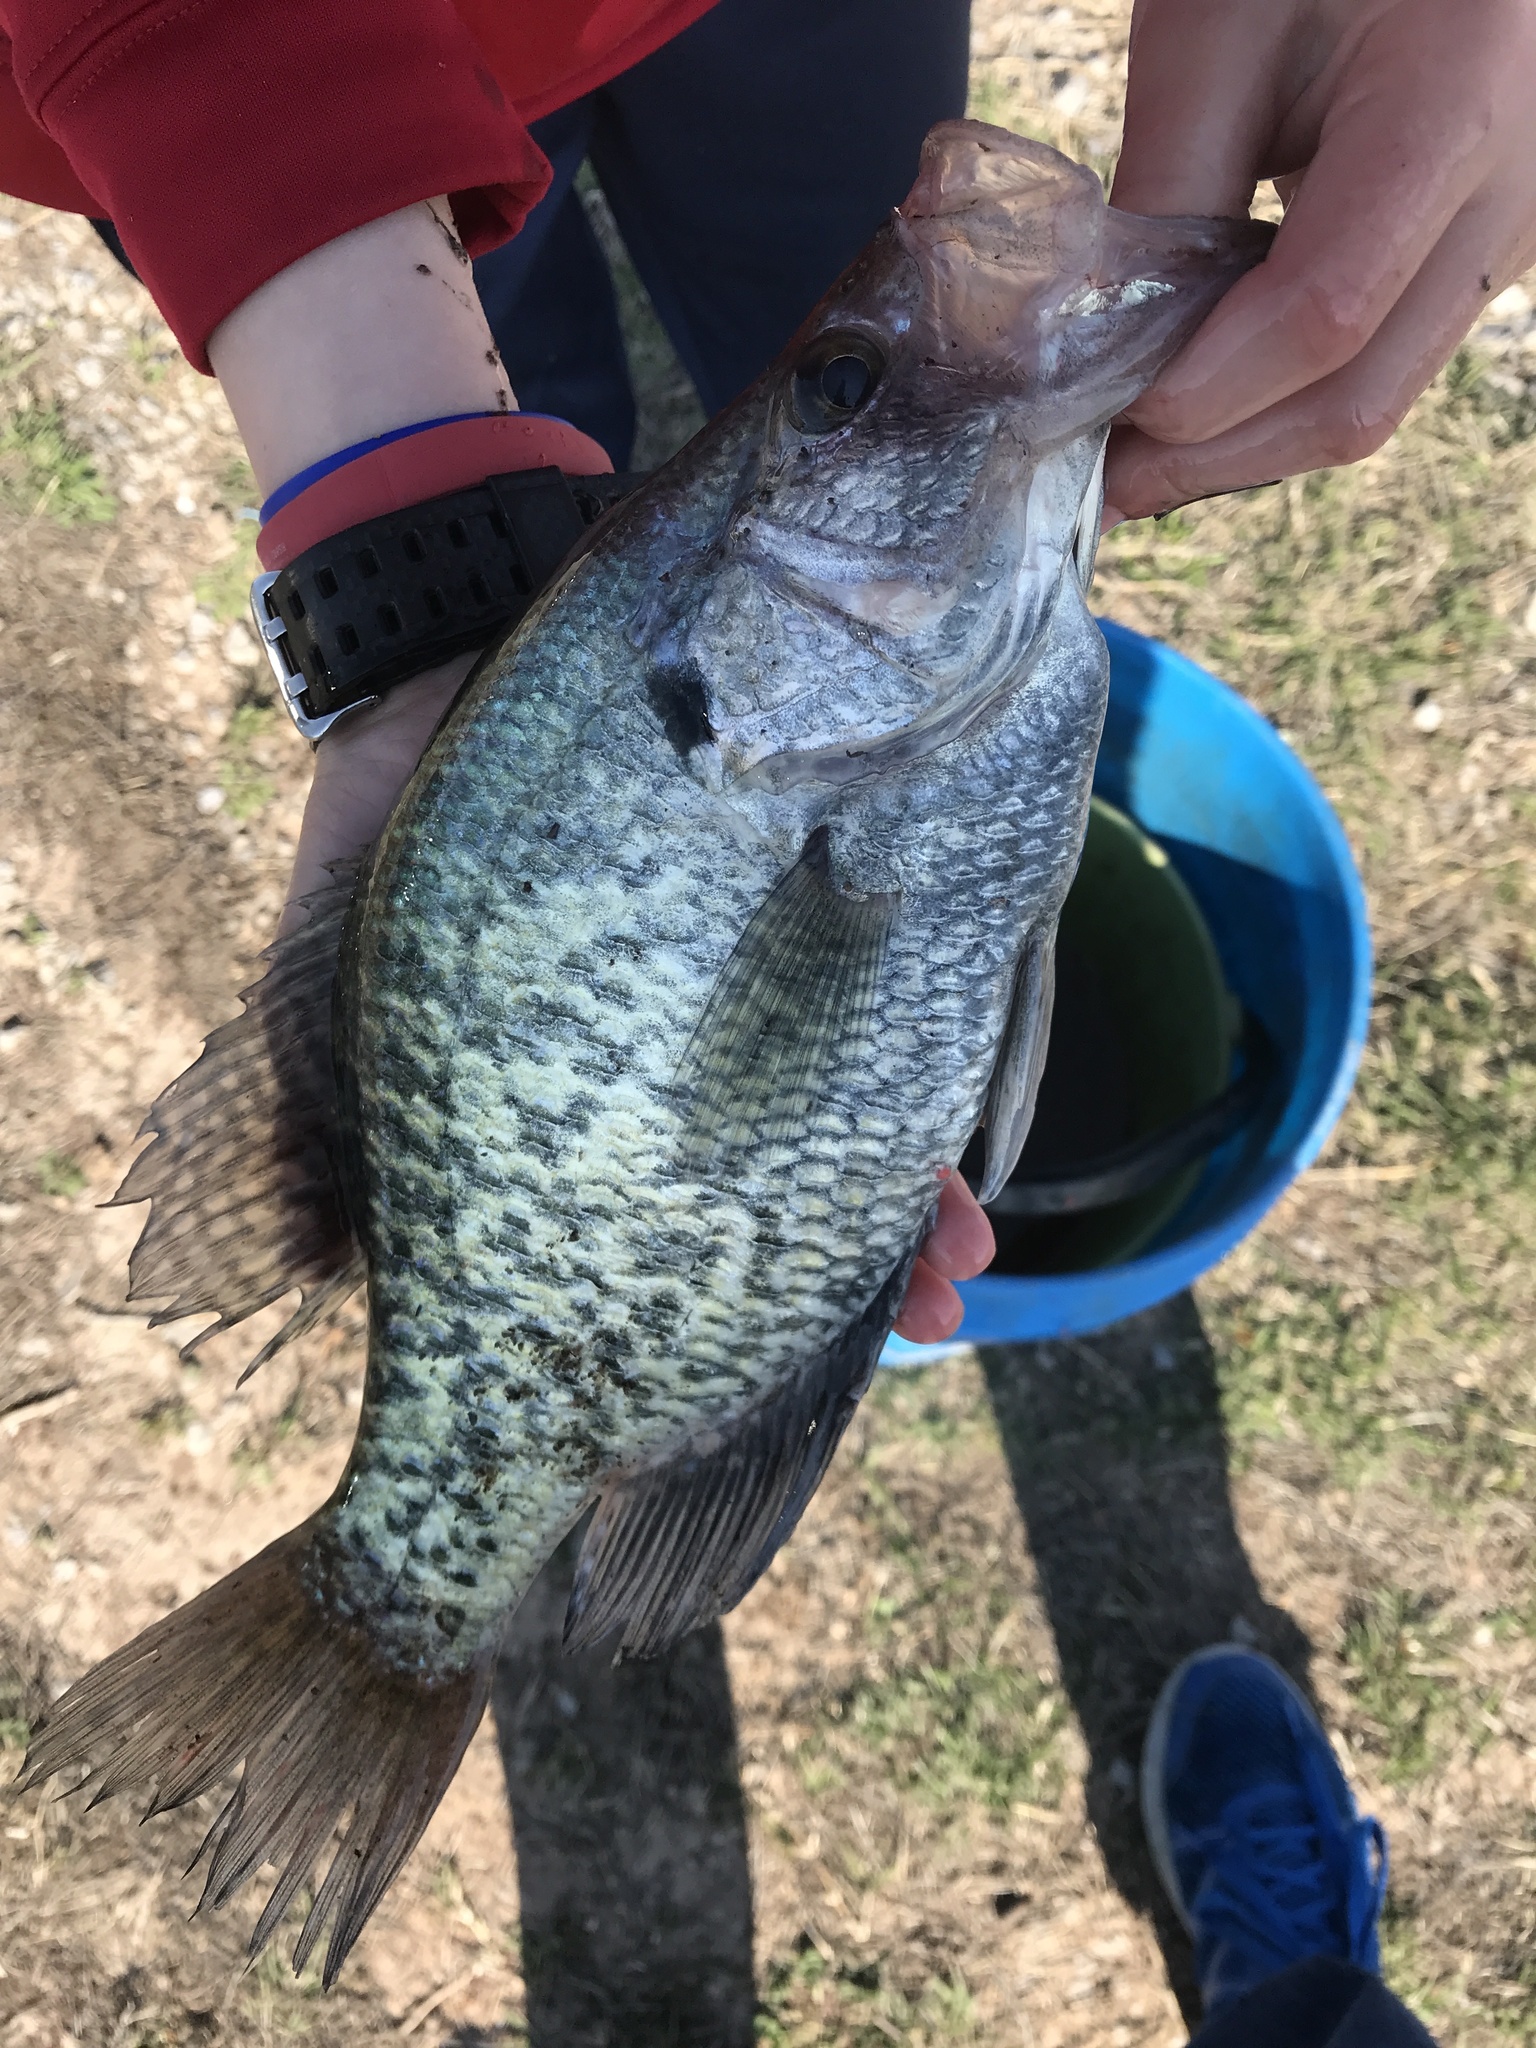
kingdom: Animalia
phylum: Chordata
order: Perciformes
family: Centrarchidae
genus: Pomoxis
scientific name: Pomoxis nigromaculatus
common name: Black crappie
